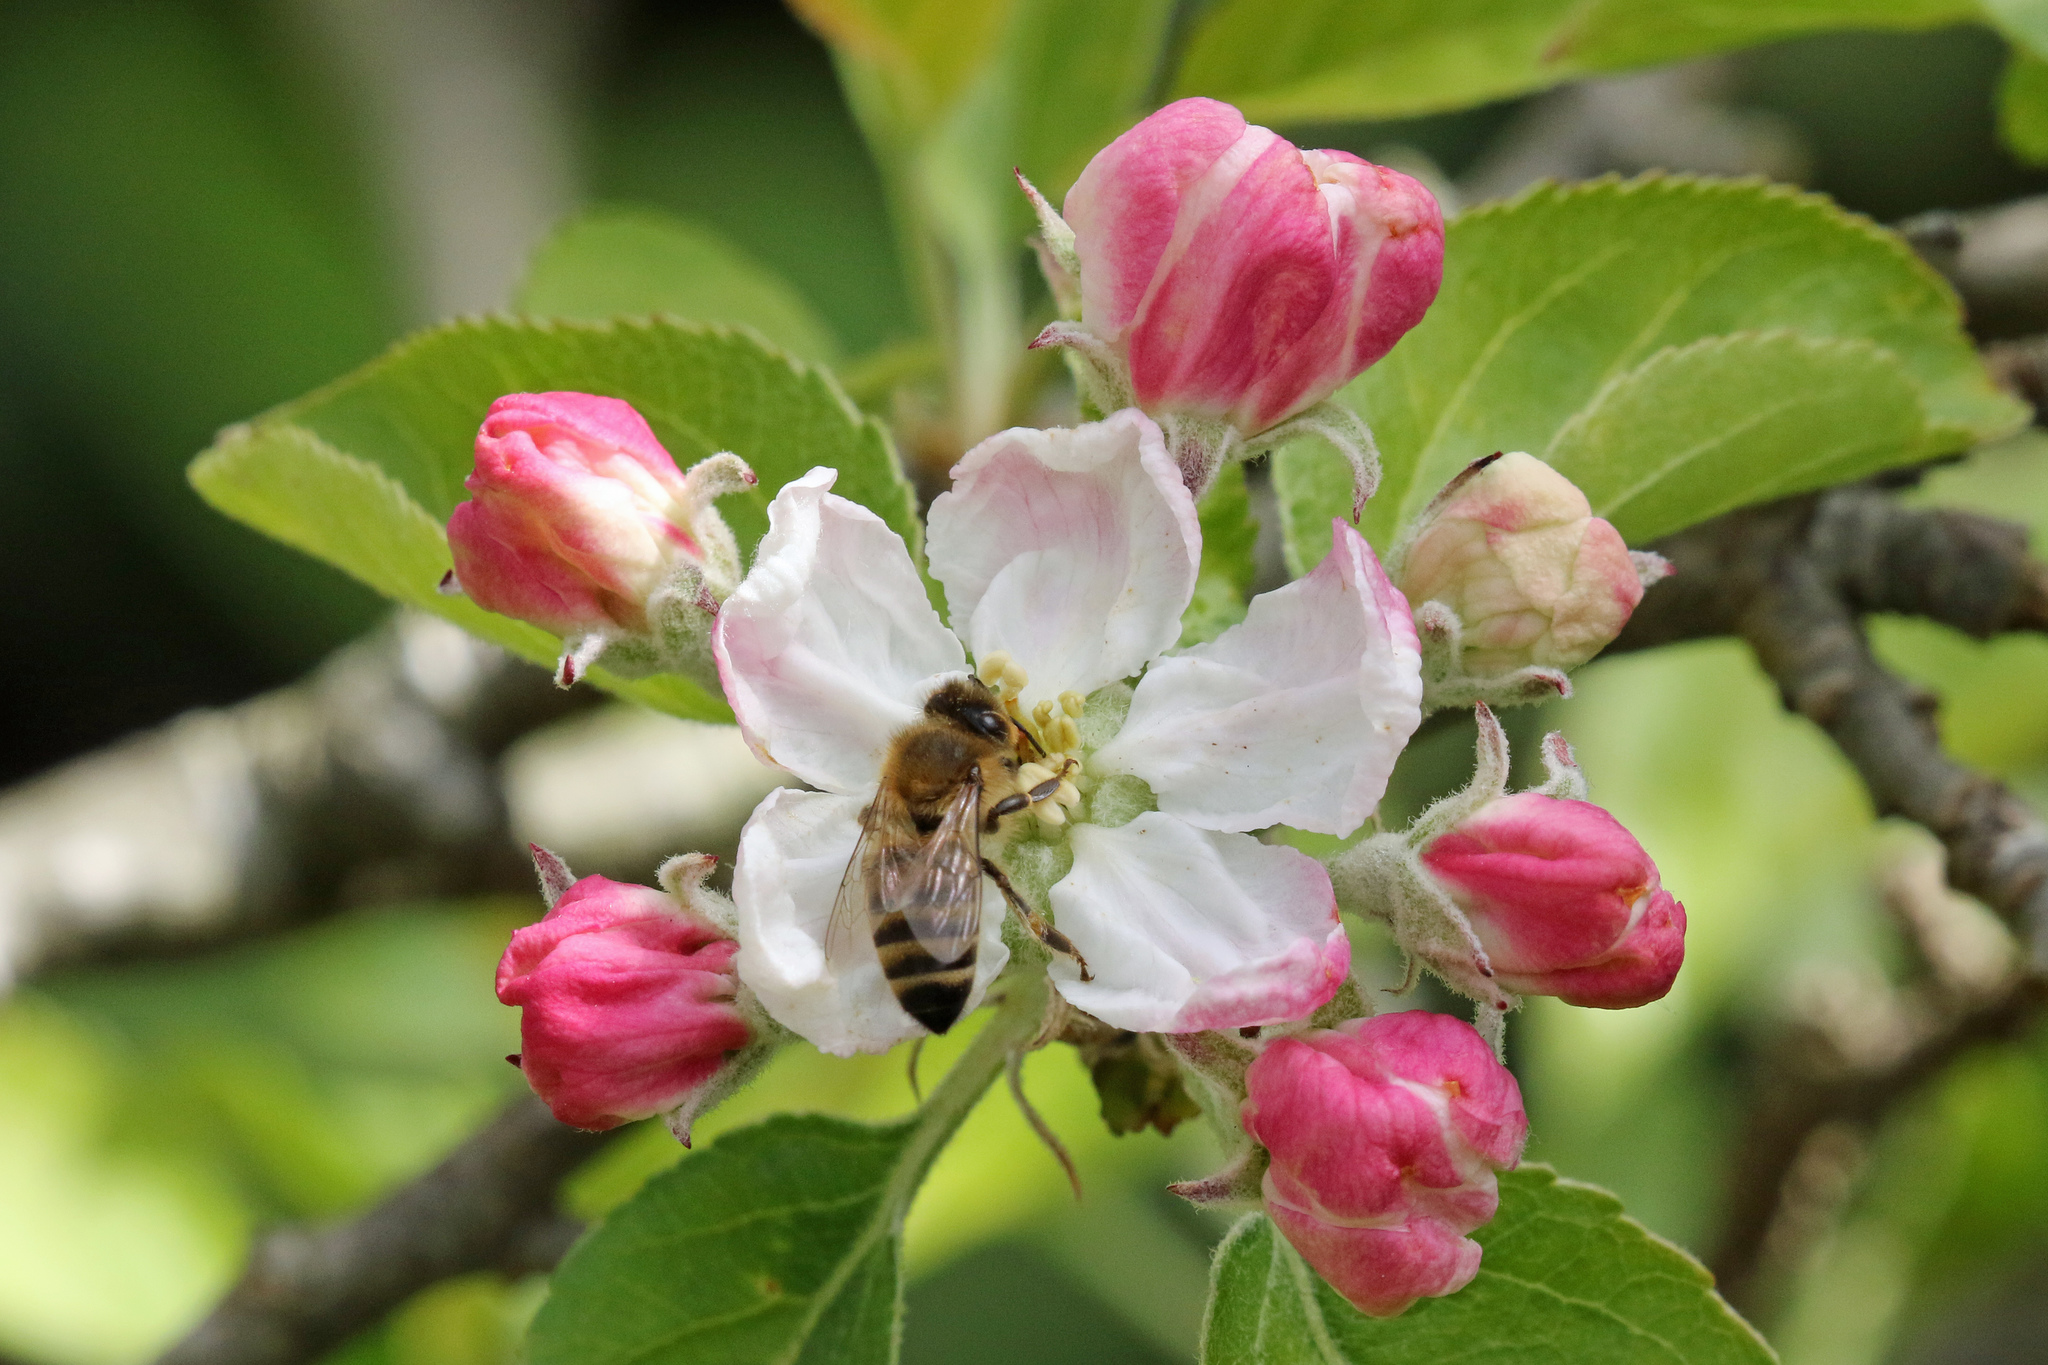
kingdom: Animalia
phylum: Arthropoda
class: Insecta
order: Hymenoptera
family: Apidae
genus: Apis
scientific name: Apis mellifera
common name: Honey bee
